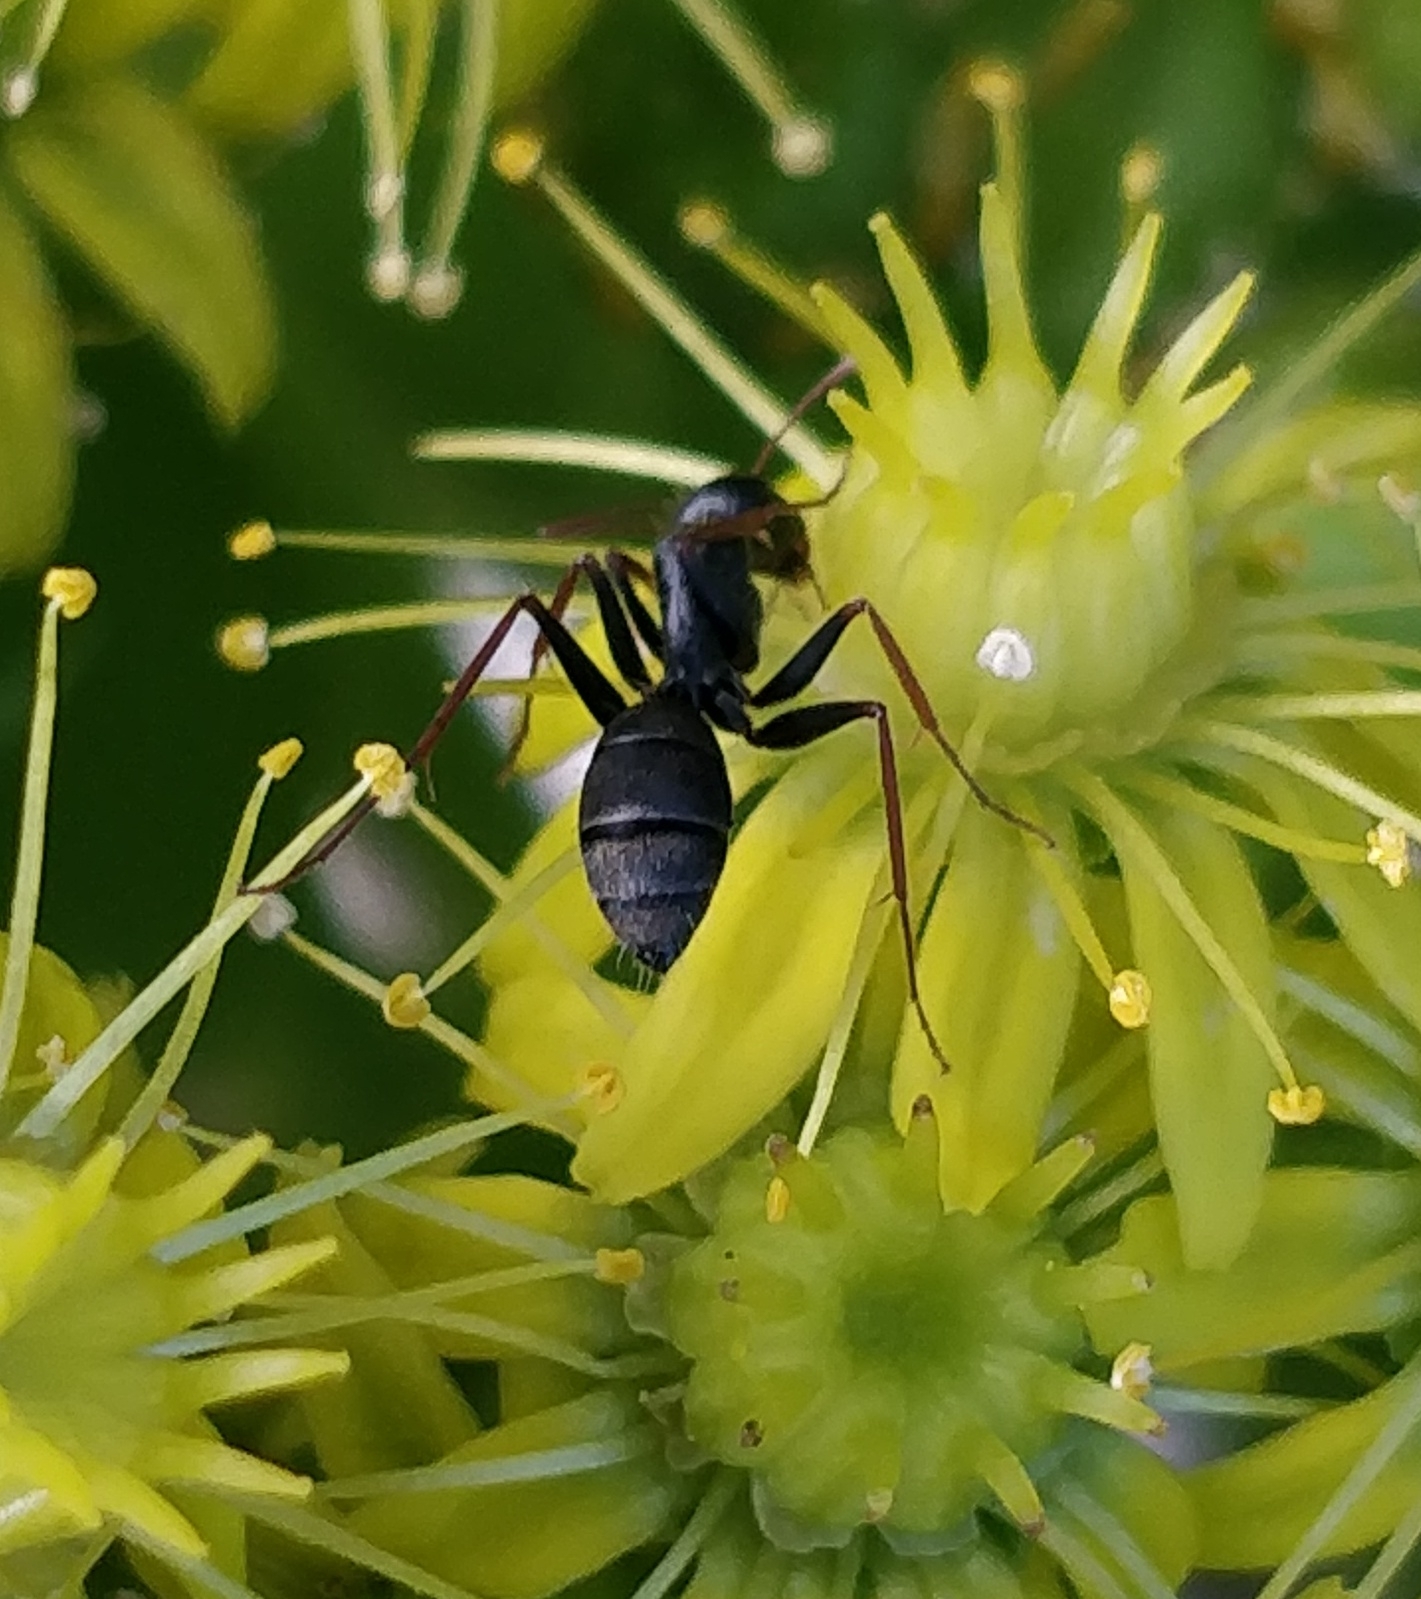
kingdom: Animalia
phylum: Arthropoda
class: Insecta
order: Hymenoptera
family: Formicidae
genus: Camponotus
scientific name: Camponotus feai
